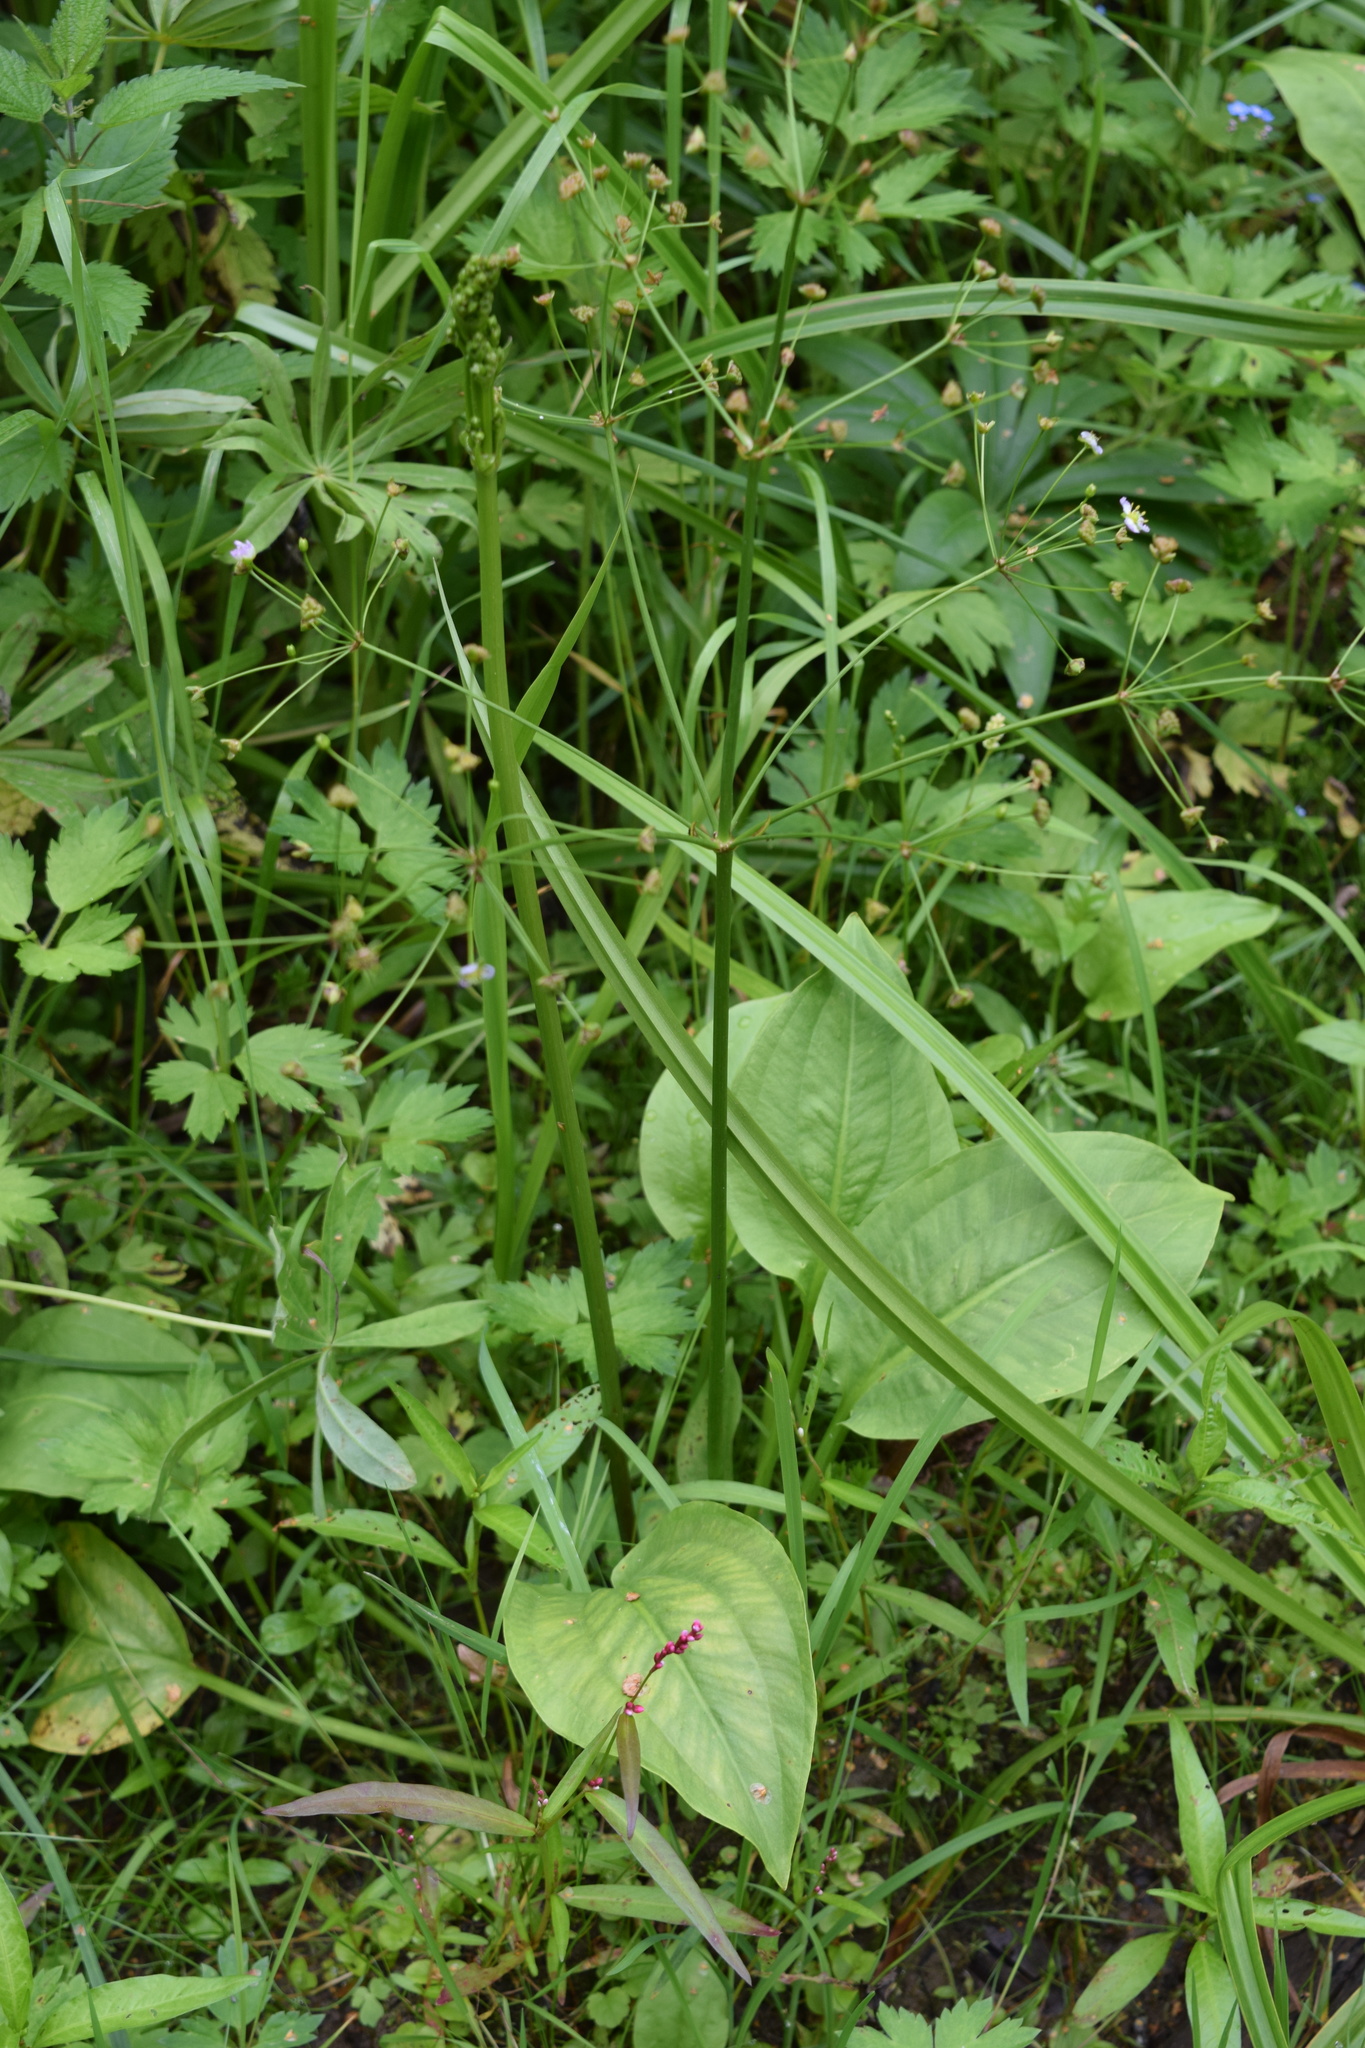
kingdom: Plantae
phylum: Tracheophyta
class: Liliopsida
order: Alismatales
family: Alismataceae
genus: Alisma
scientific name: Alisma plantago-aquatica
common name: Water-plantain
